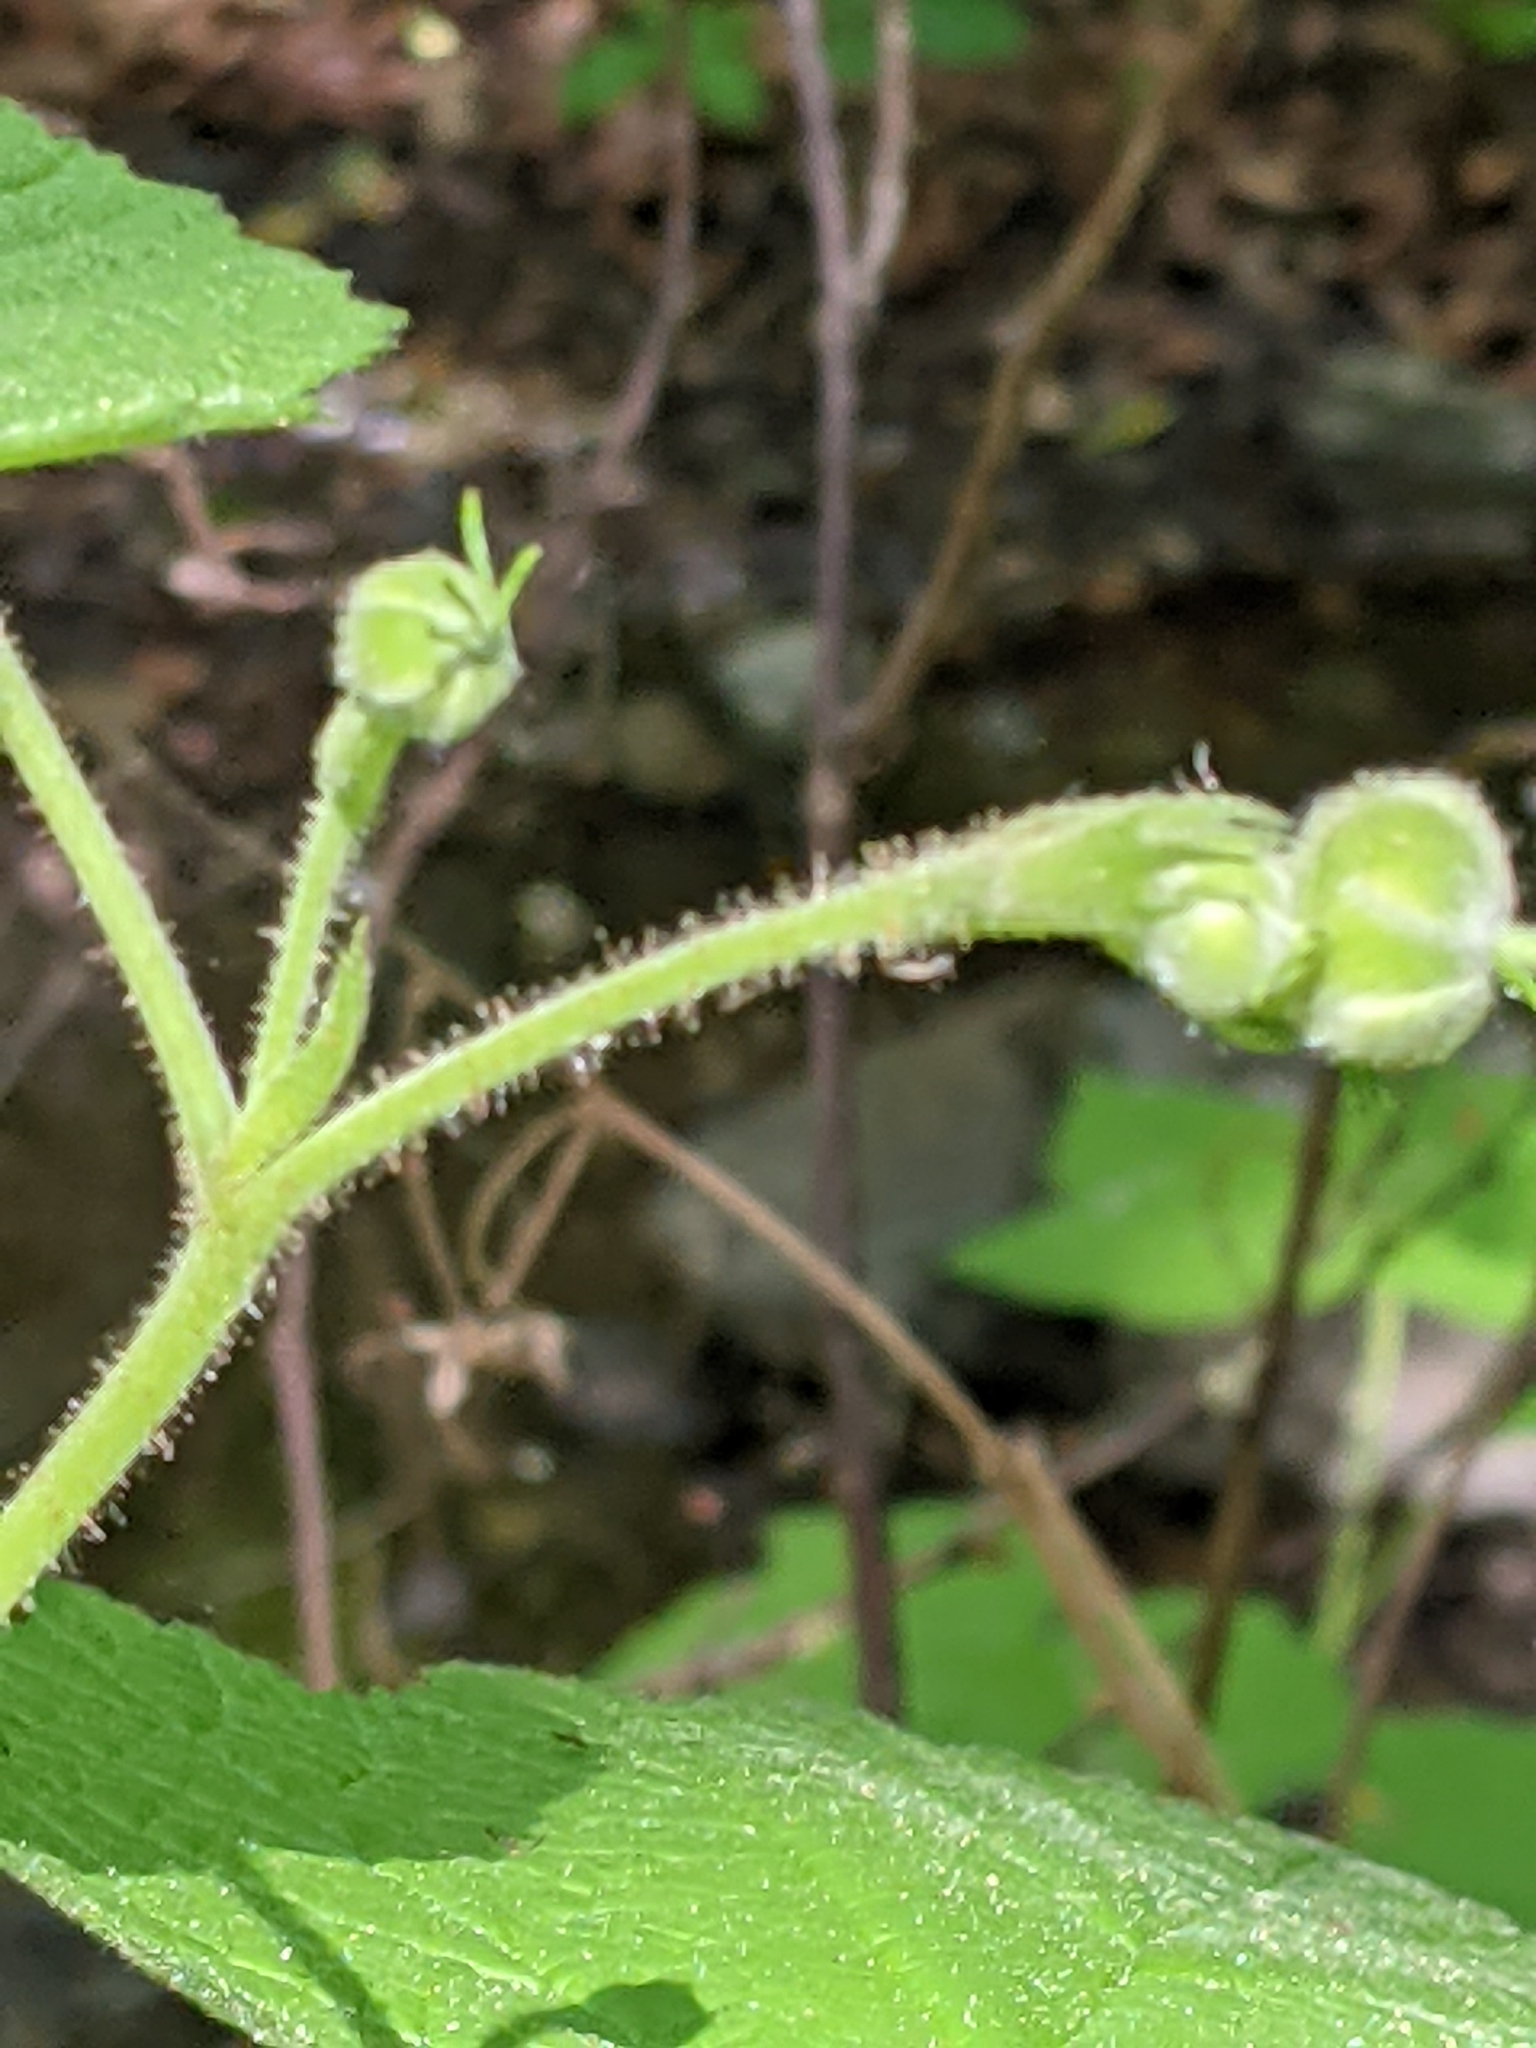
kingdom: Plantae
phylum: Tracheophyta
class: Magnoliopsida
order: Rosales
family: Rosaceae
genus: Rubus
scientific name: Rubus parviflorus
